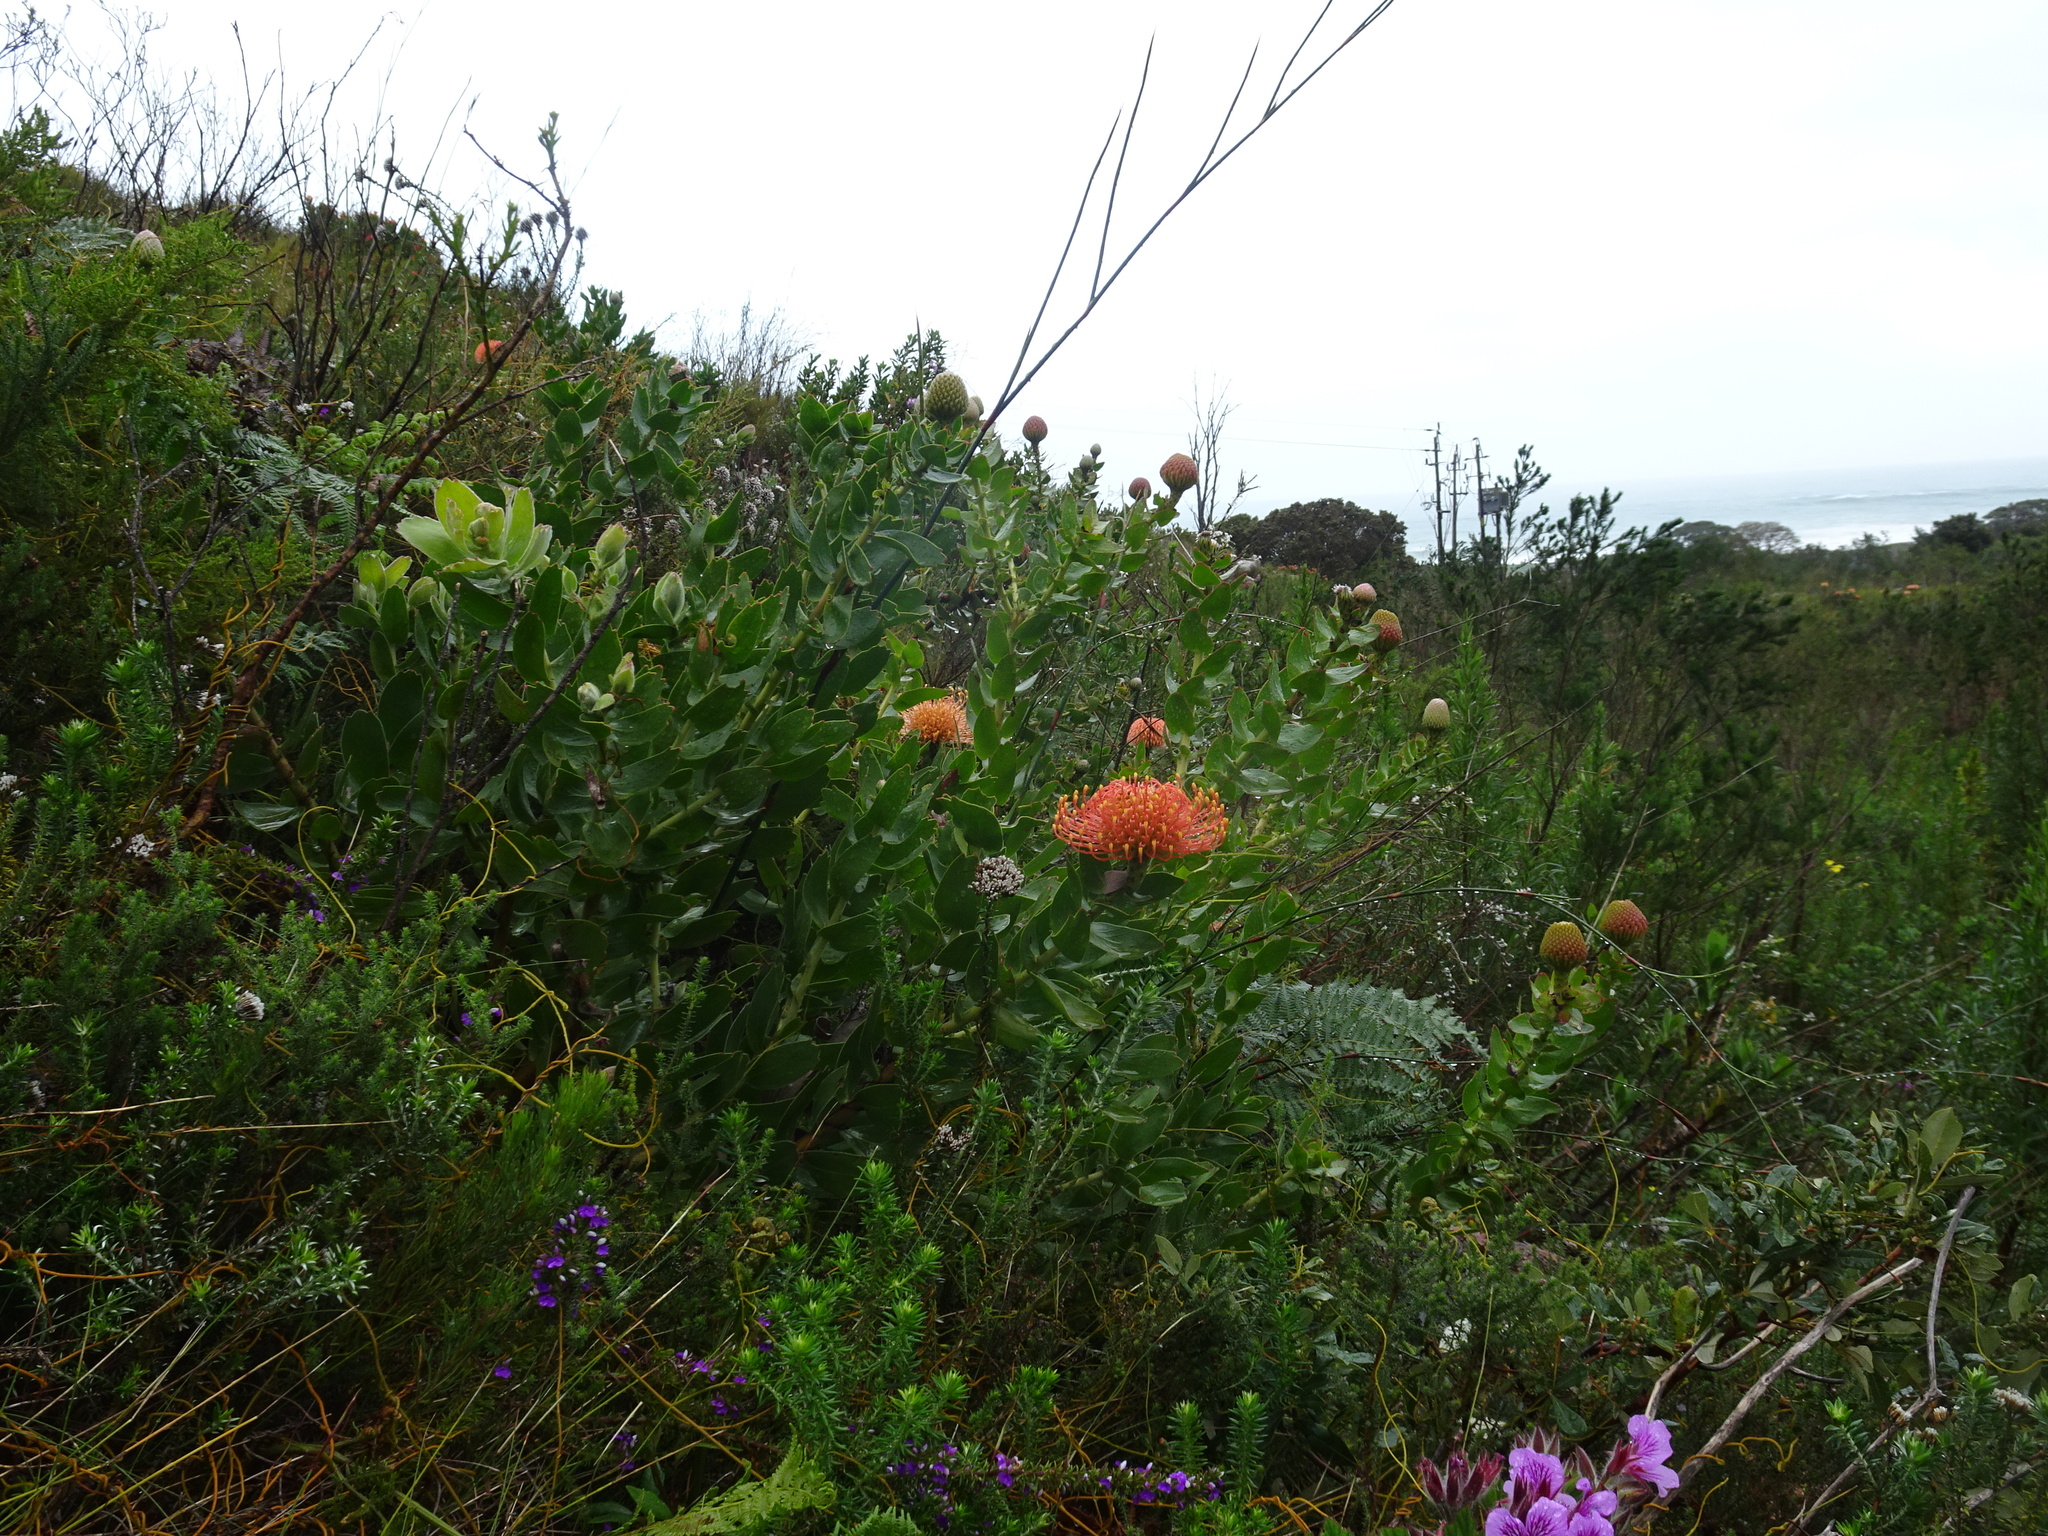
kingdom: Plantae
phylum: Tracheophyta
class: Magnoliopsida
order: Proteales
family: Proteaceae
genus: Leucospermum
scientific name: Leucospermum cordifolium
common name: Red pincushion-protea
